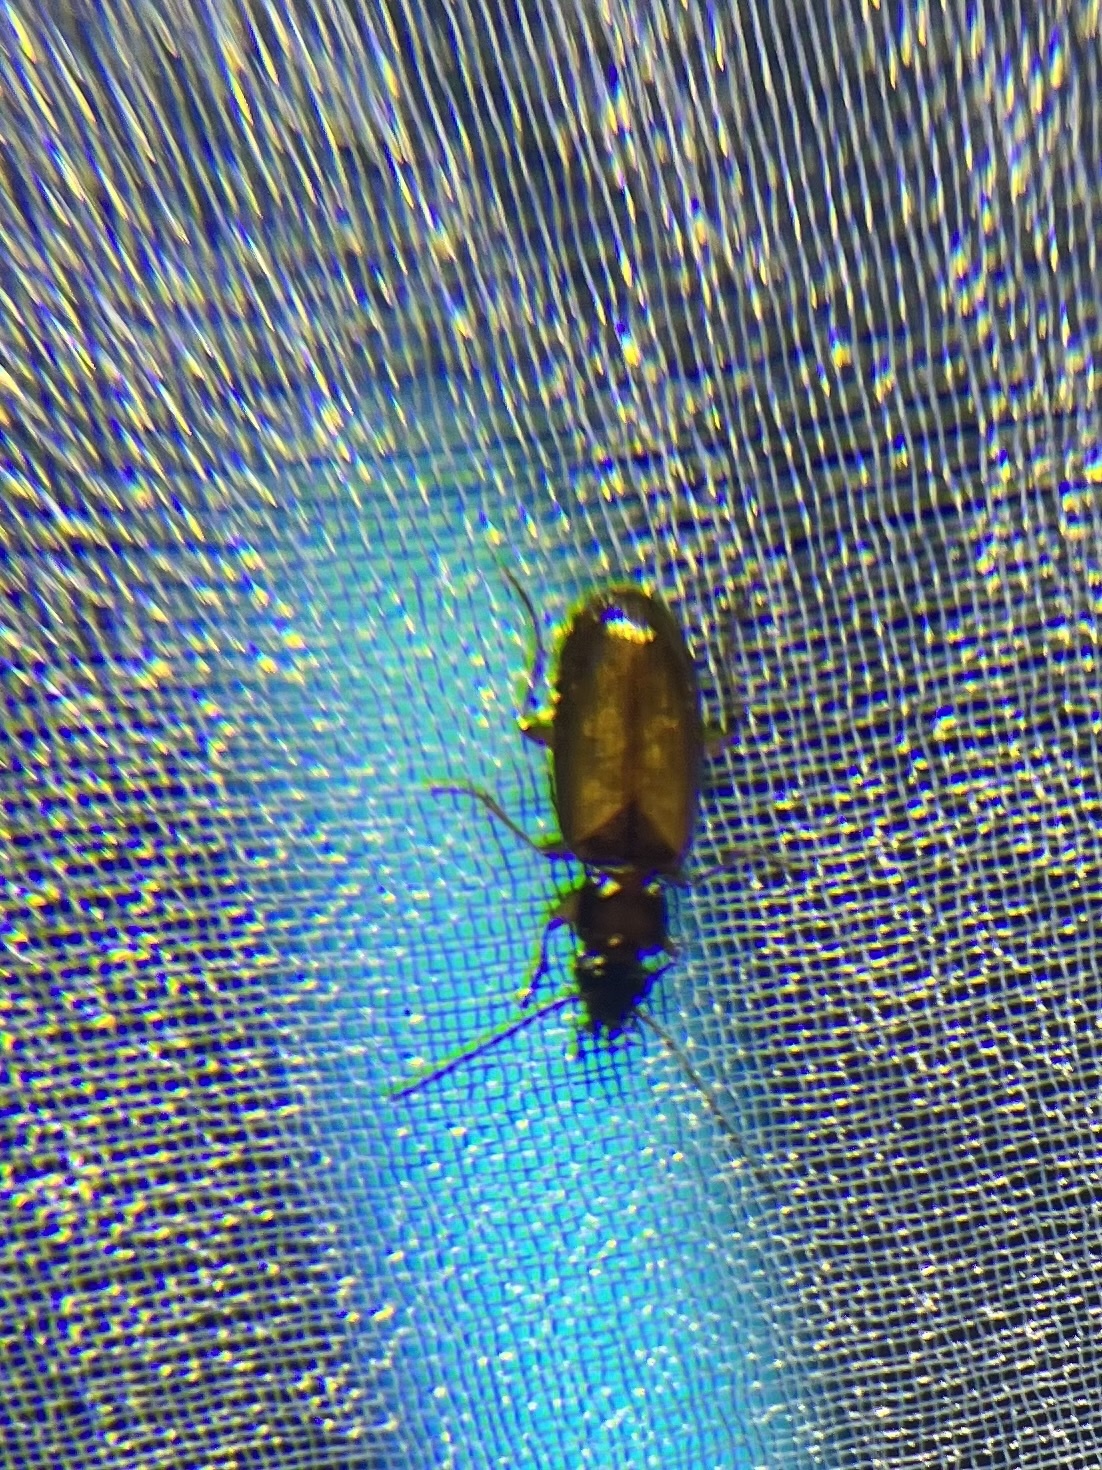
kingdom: Animalia
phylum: Arthropoda
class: Insecta
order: Coleoptera
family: Carabidae
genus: Axinopalpus
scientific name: Axinopalpus fusciceps
